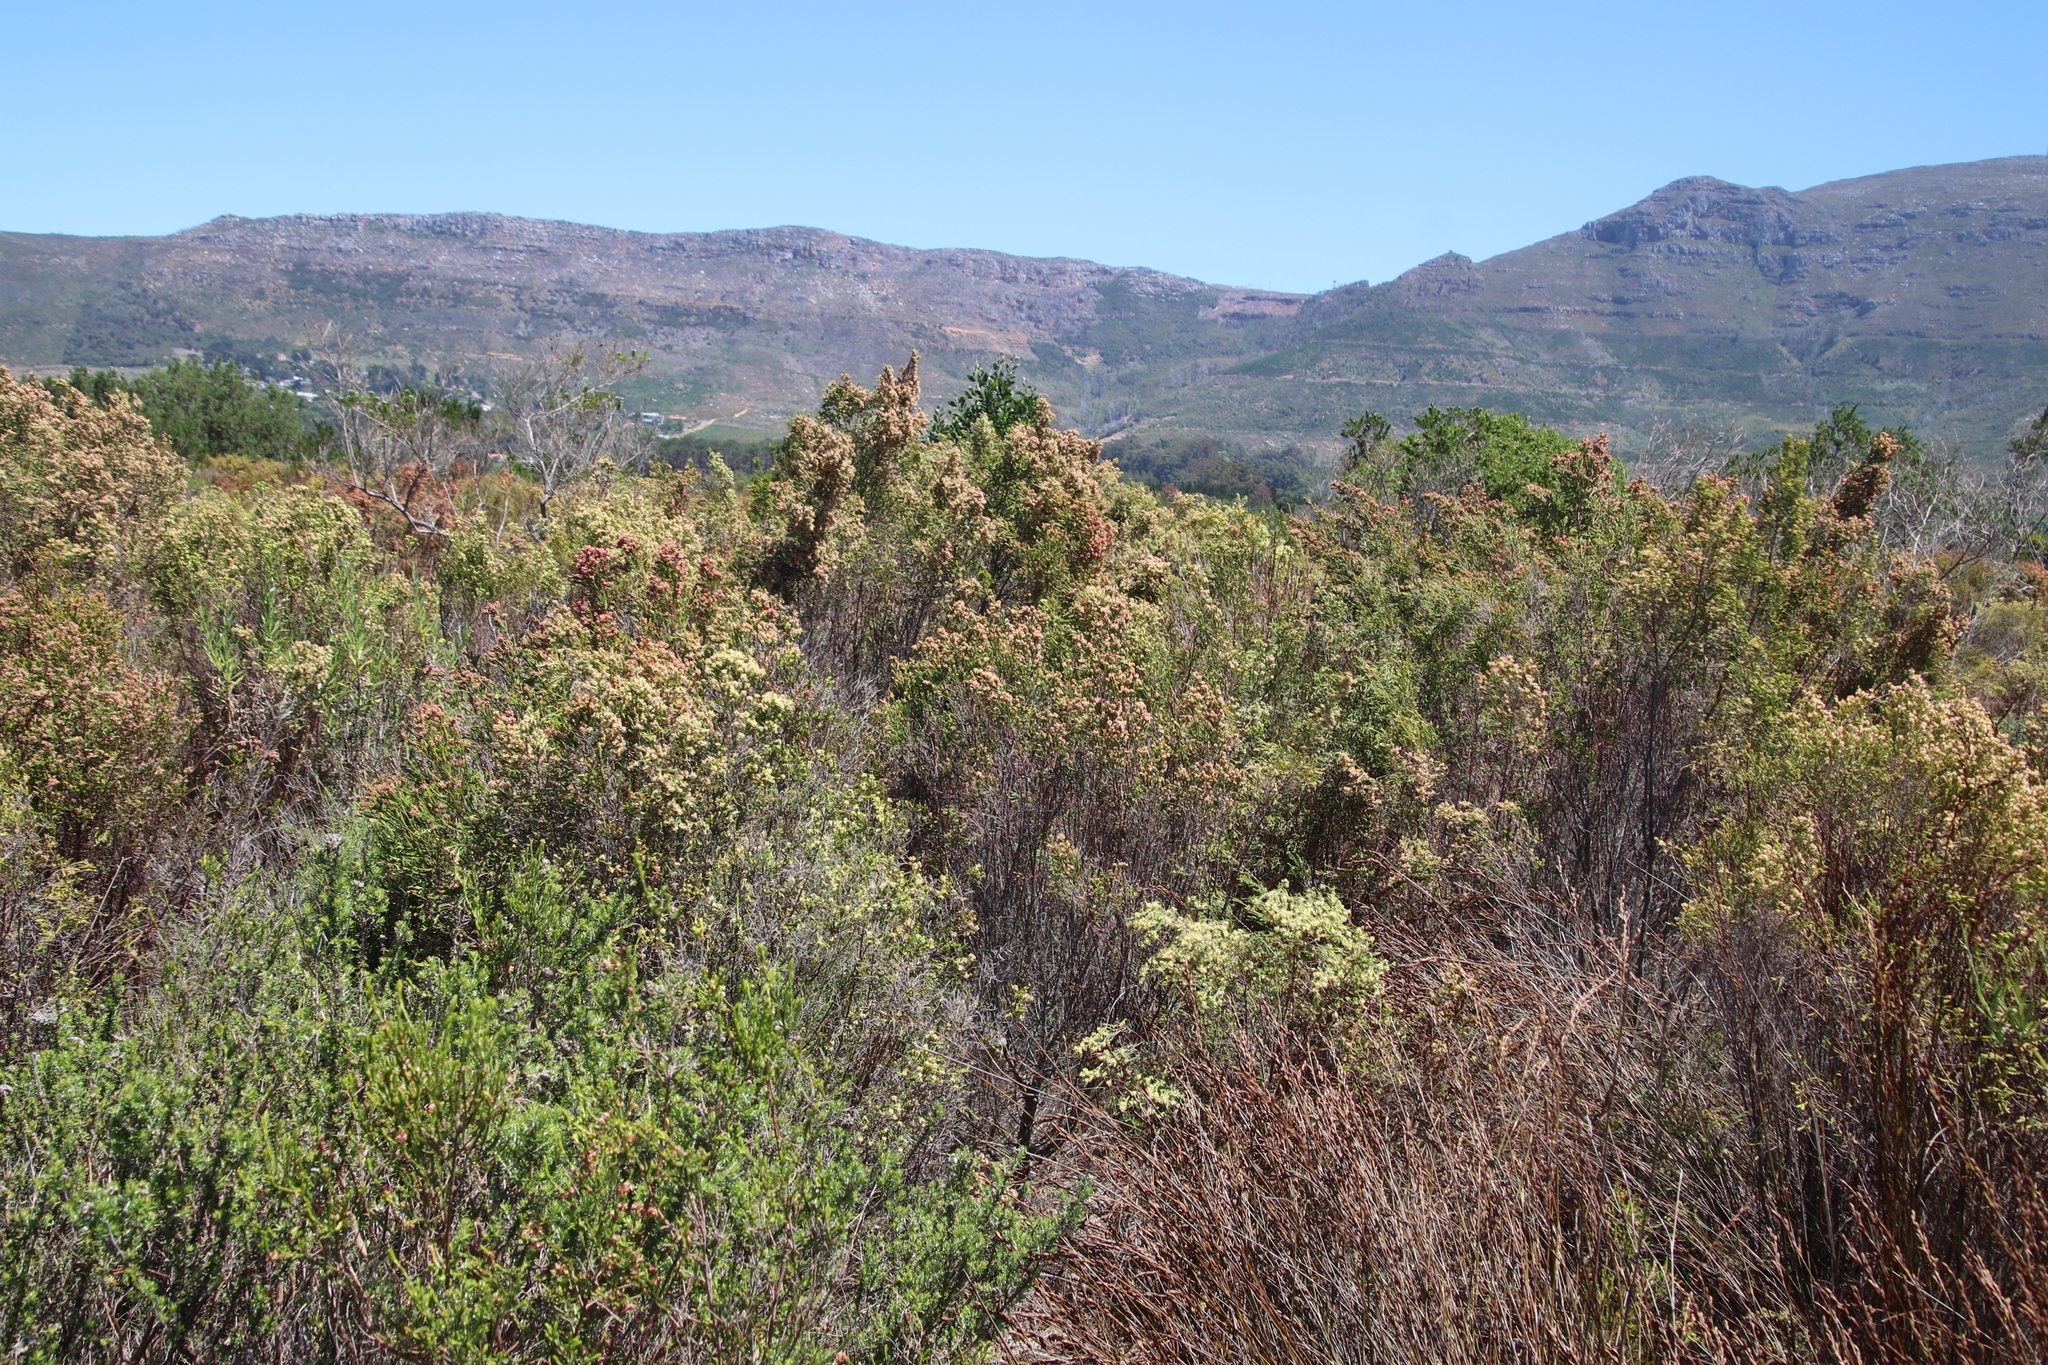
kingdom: Plantae
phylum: Tracheophyta
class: Magnoliopsida
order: Malvales
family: Thymelaeaceae
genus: Passerina
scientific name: Passerina corymbosa
